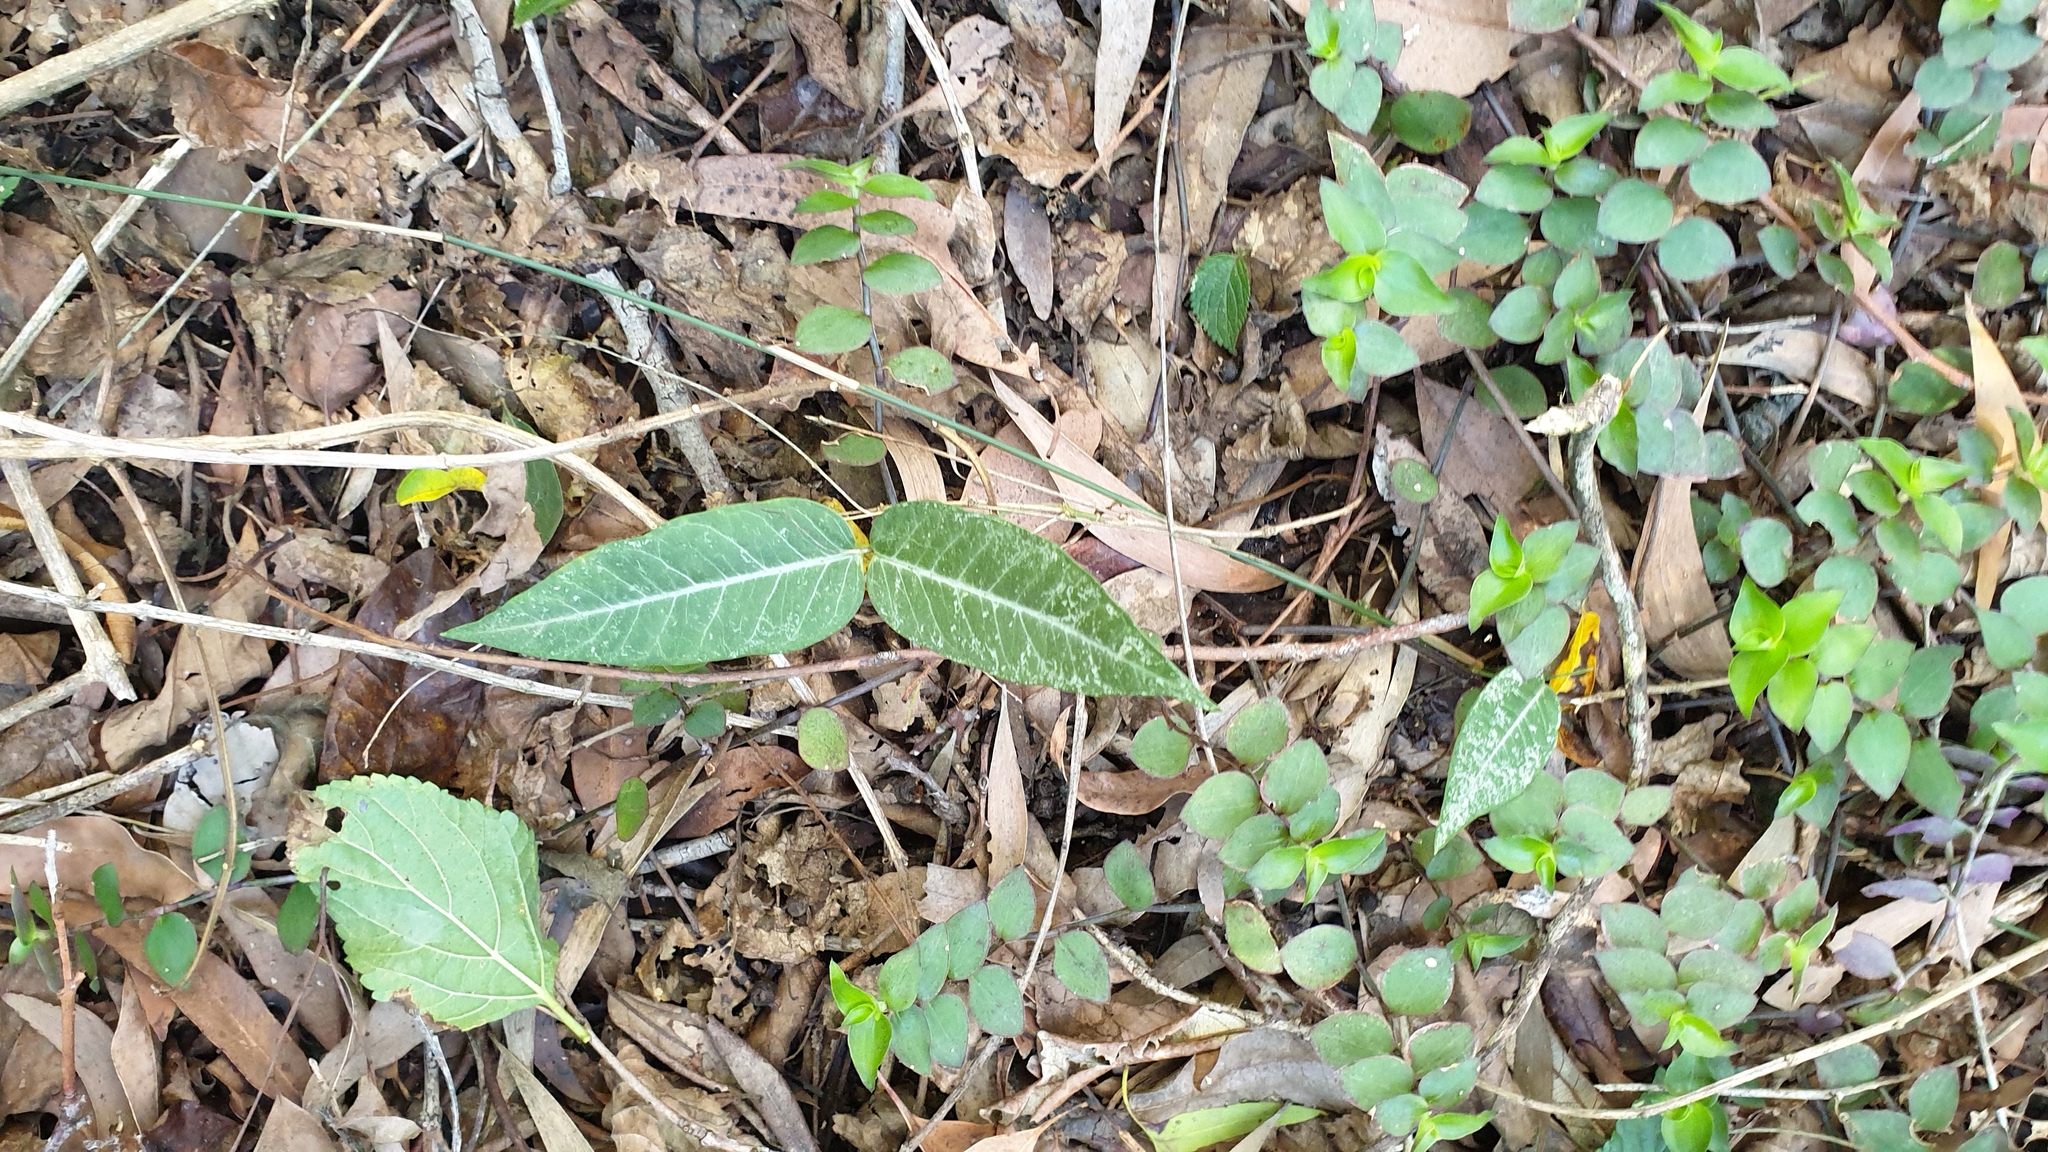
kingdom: Plantae
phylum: Tracheophyta
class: Magnoliopsida
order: Gentianales
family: Apocynaceae
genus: Parsonsia
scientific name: Parsonsia lanceolata
